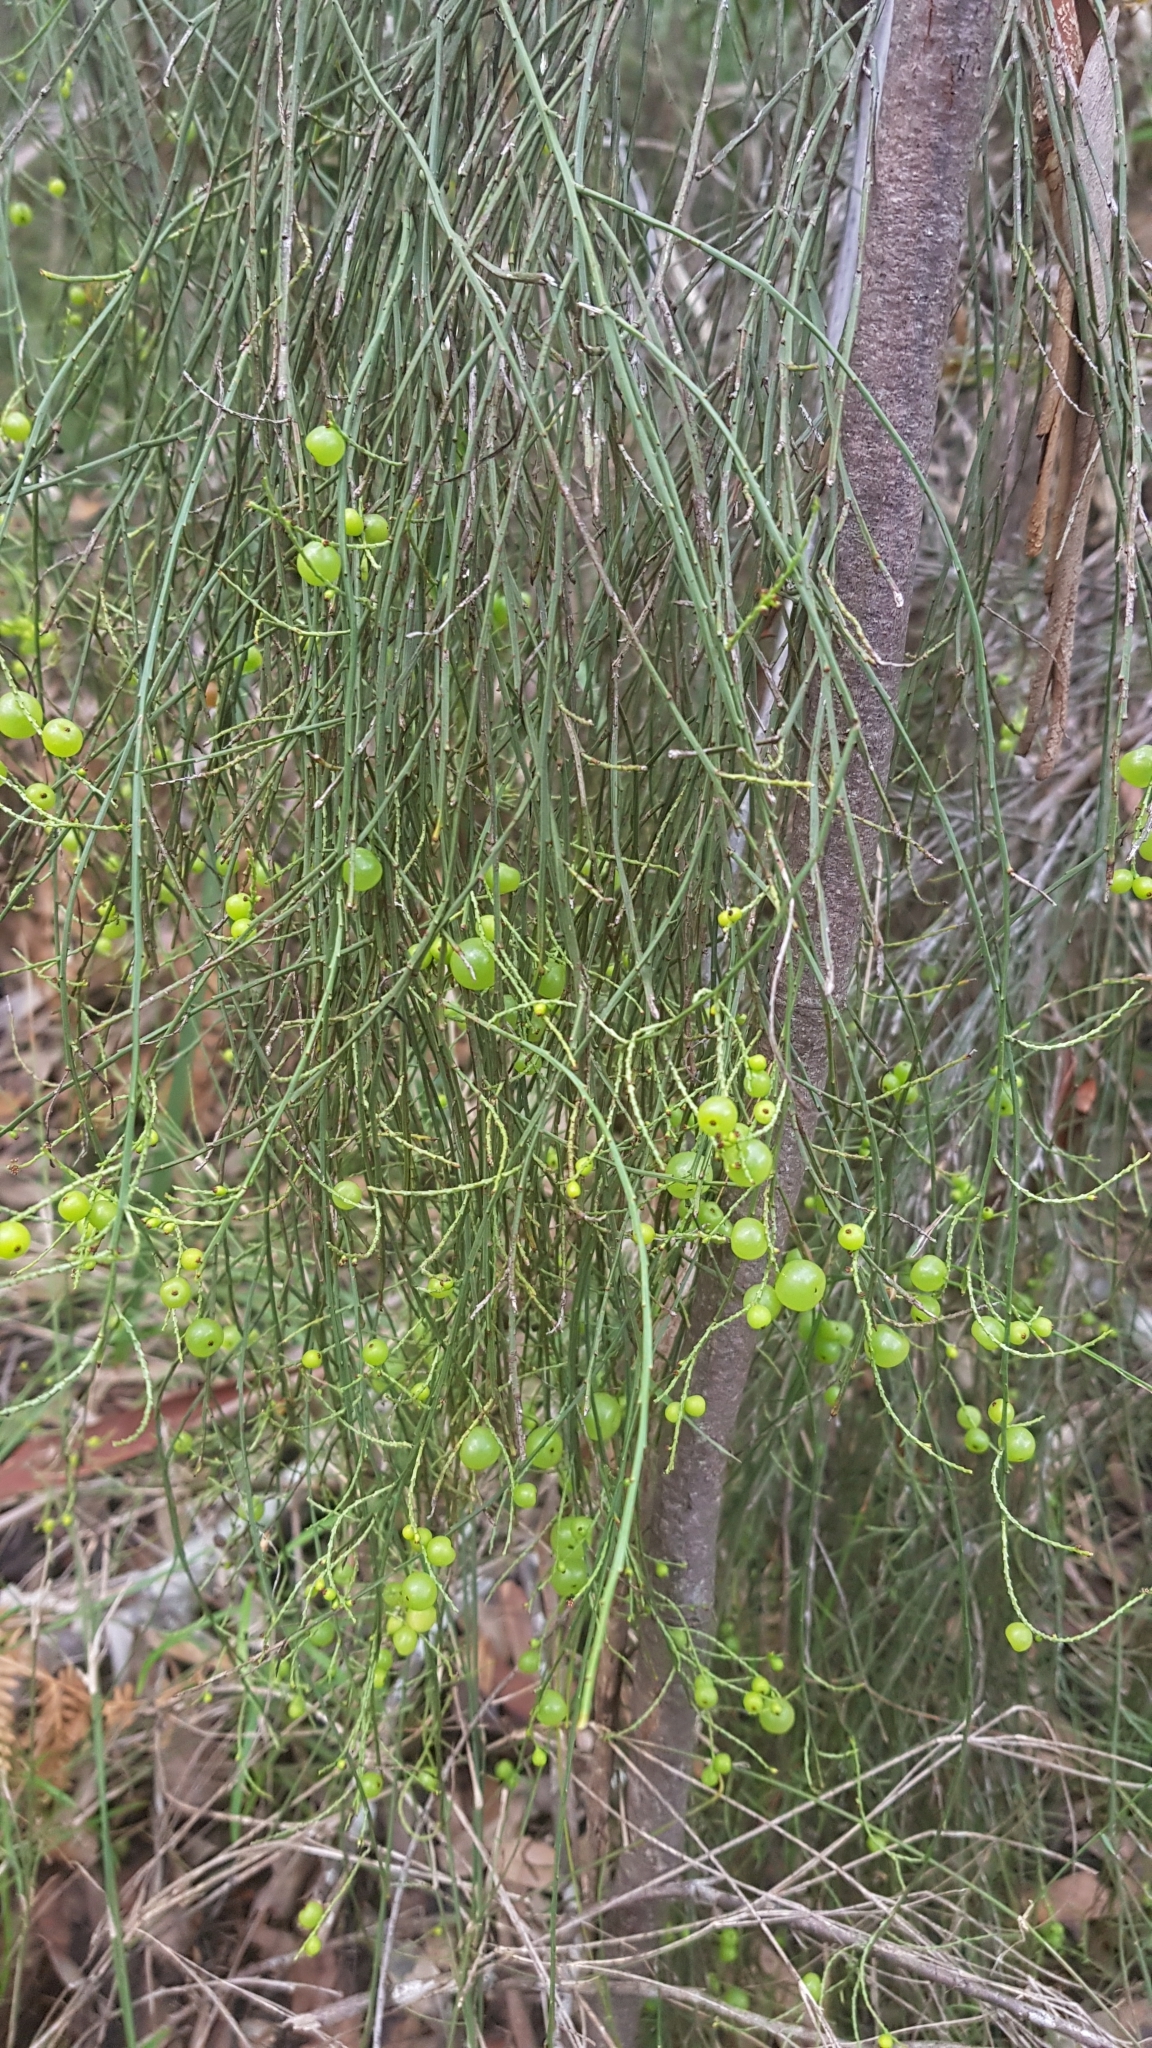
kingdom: Plantae
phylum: Tracheophyta
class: Magnoliopsida
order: Santalales
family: Amphorogynaceae
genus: Leptomeria
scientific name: Leptomeria acida
